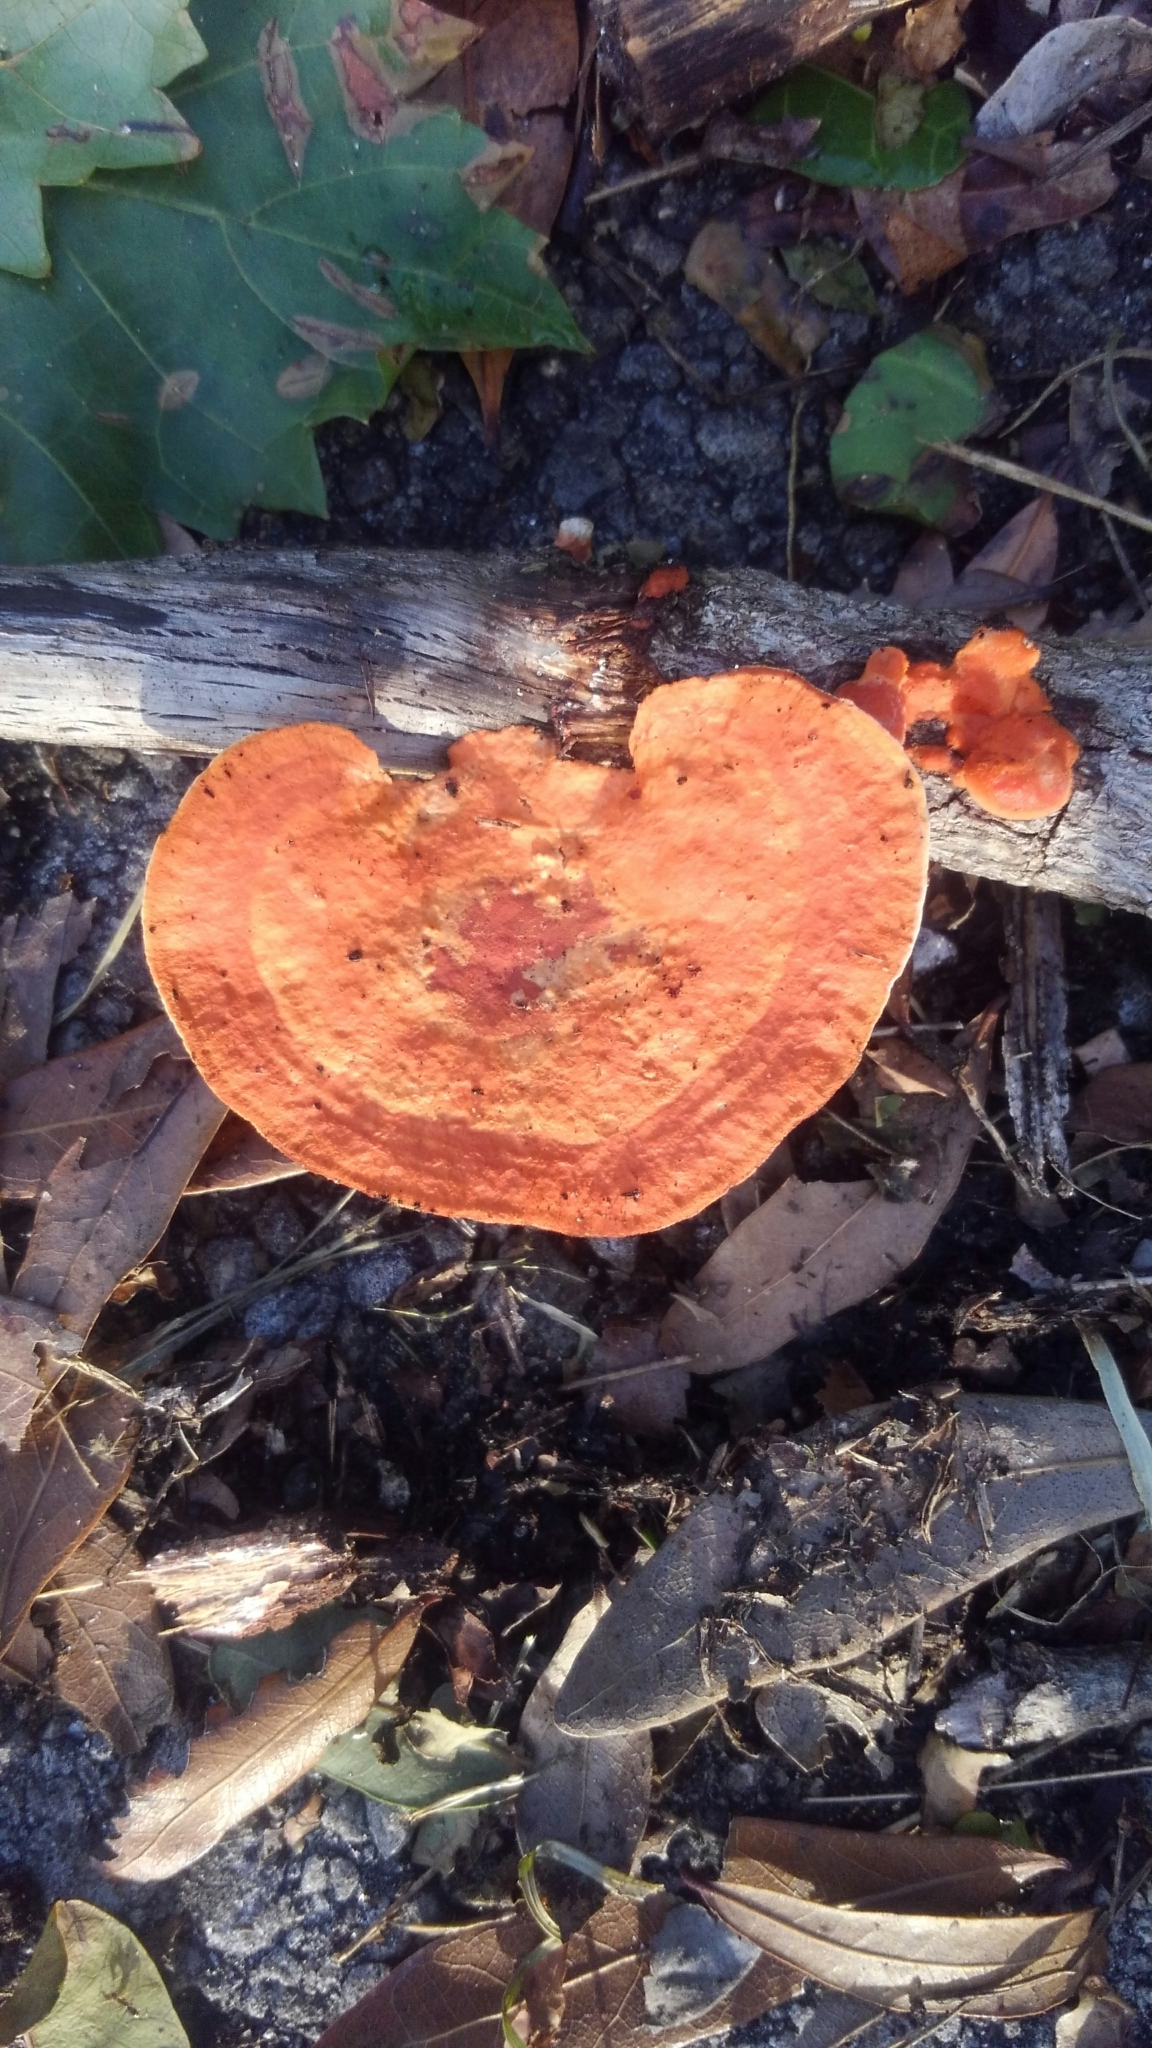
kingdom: Fungi
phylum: Basidiomycota
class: Agaricomycetes
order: Polyporales
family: Polyporaceae
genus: Trametes
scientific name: Trametes cinnabarina
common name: Northern cinnabar polypore
